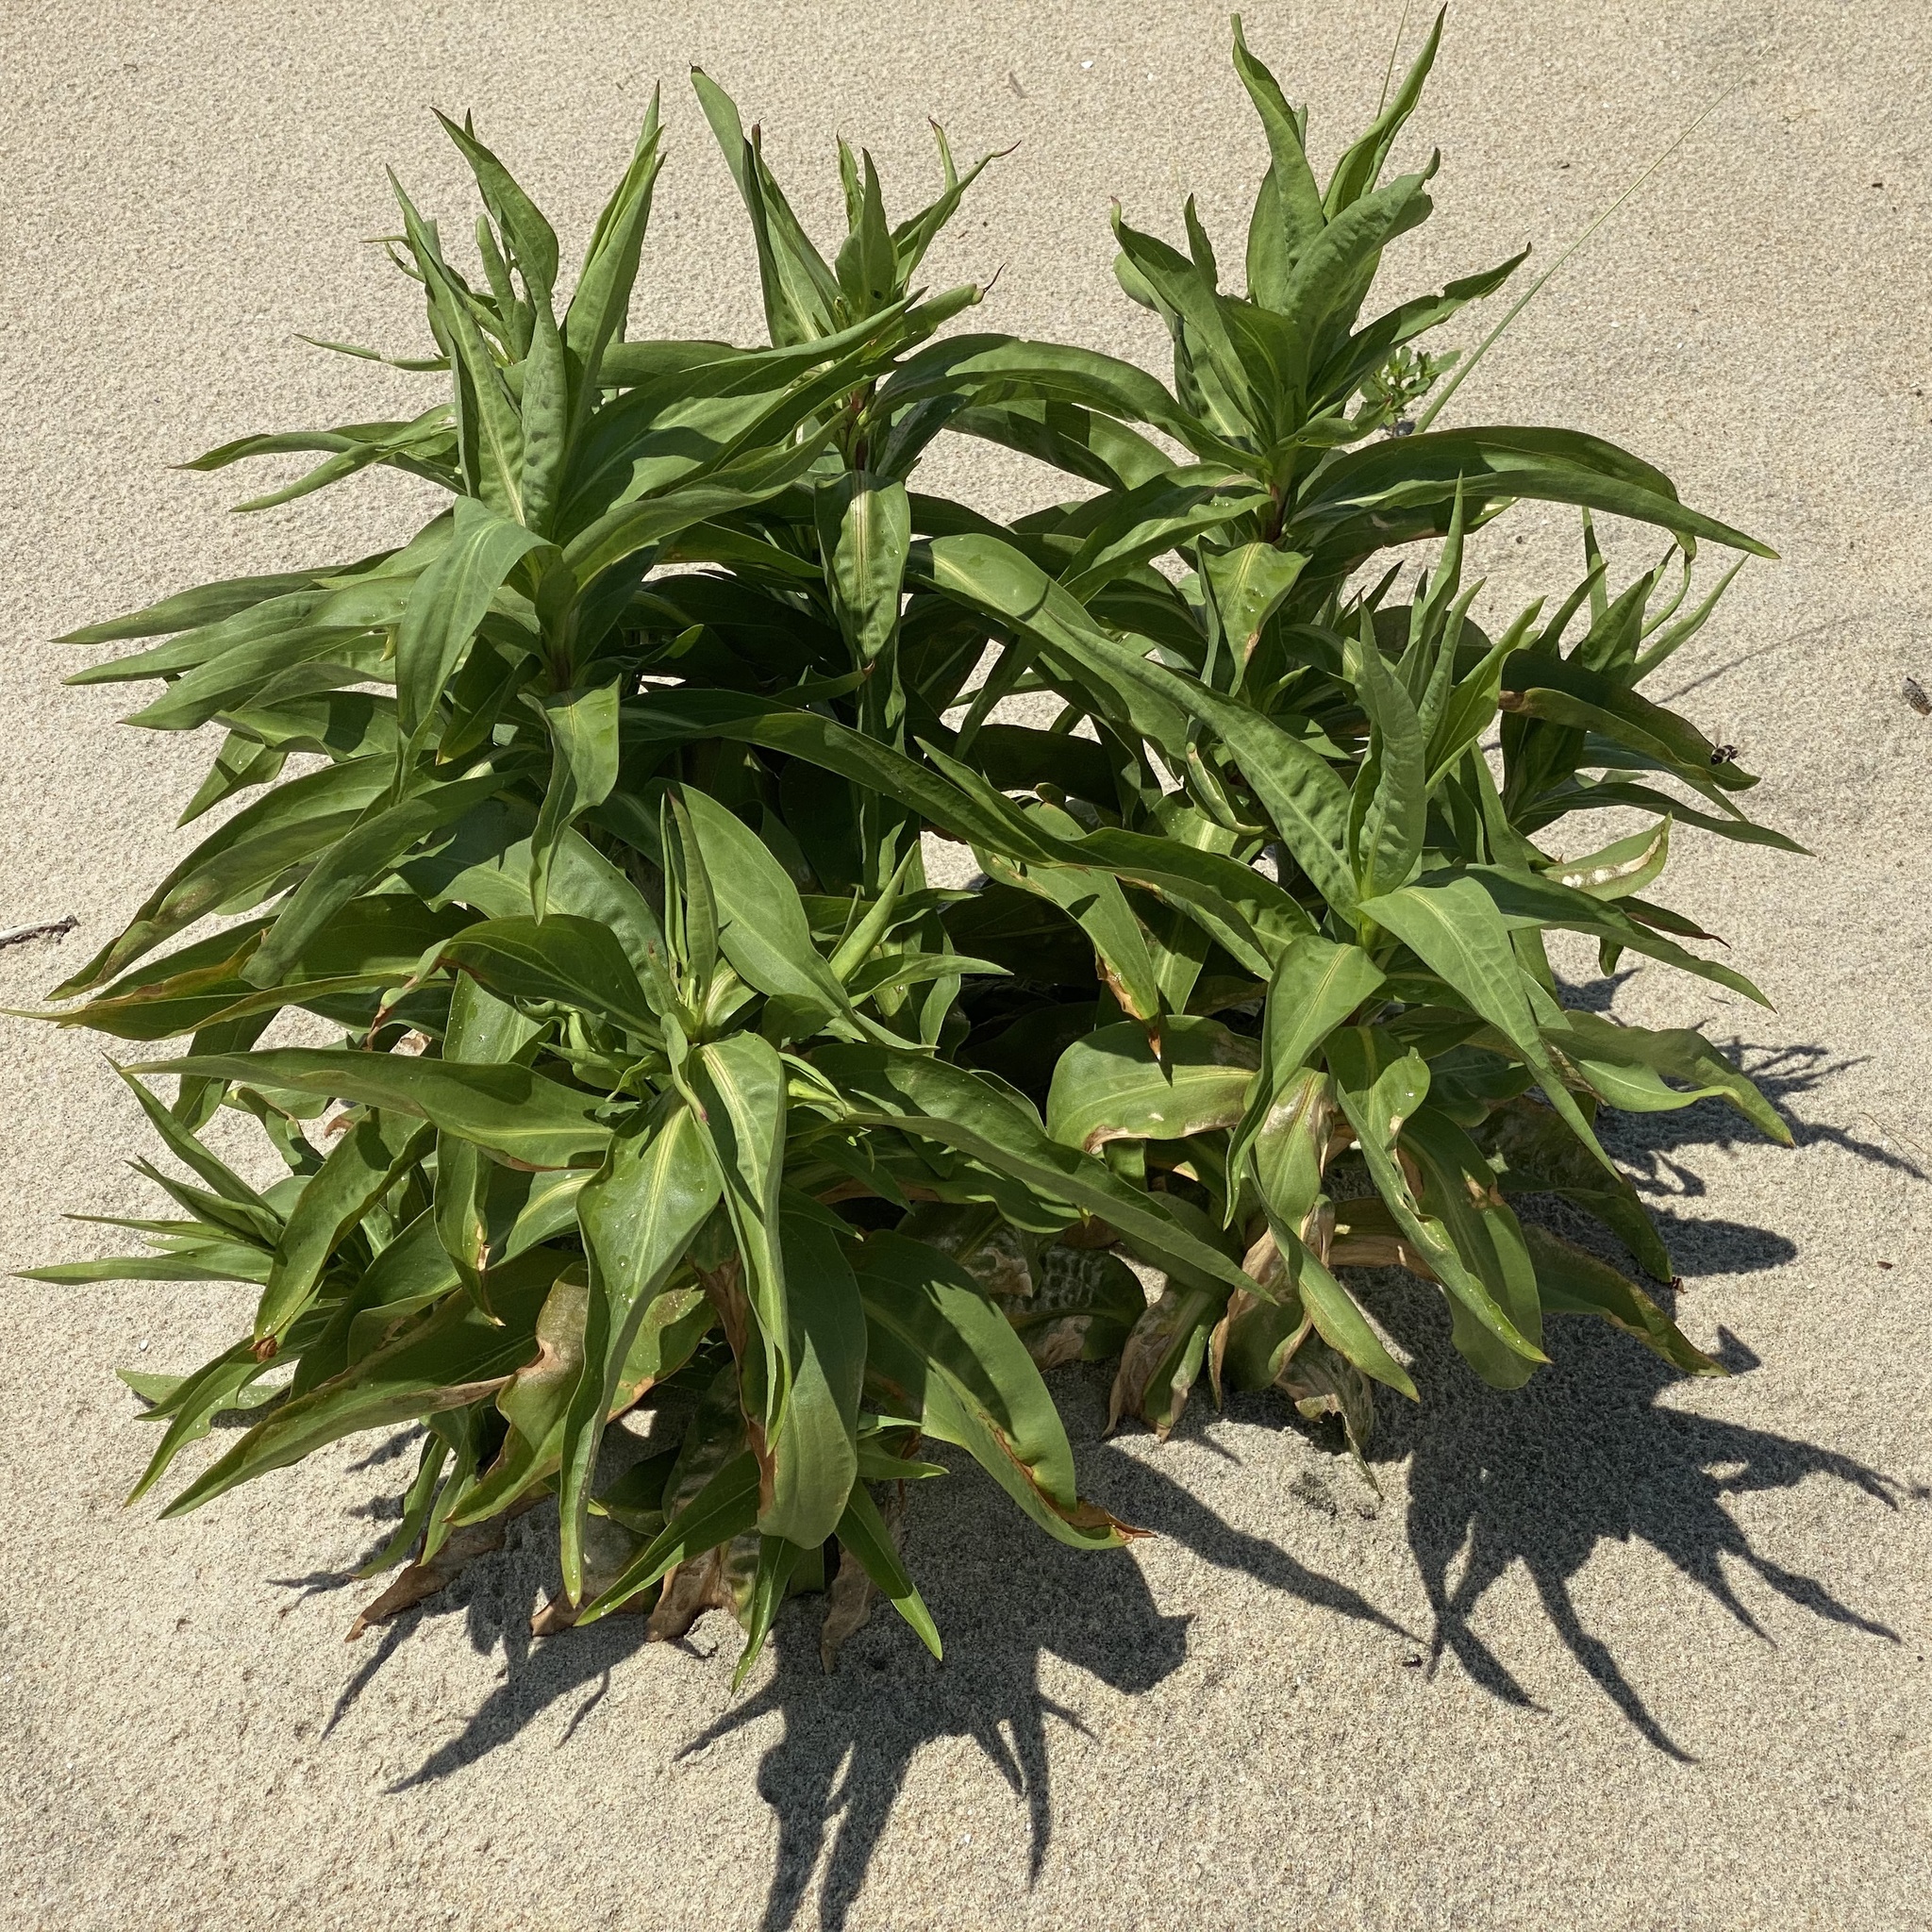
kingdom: Plantae
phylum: Tracheophyta
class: Magnoliopsida
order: Asterales
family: Asteraceae
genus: Solidago
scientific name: Solidago sempervirens
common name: Salt-marsh goldenrod
